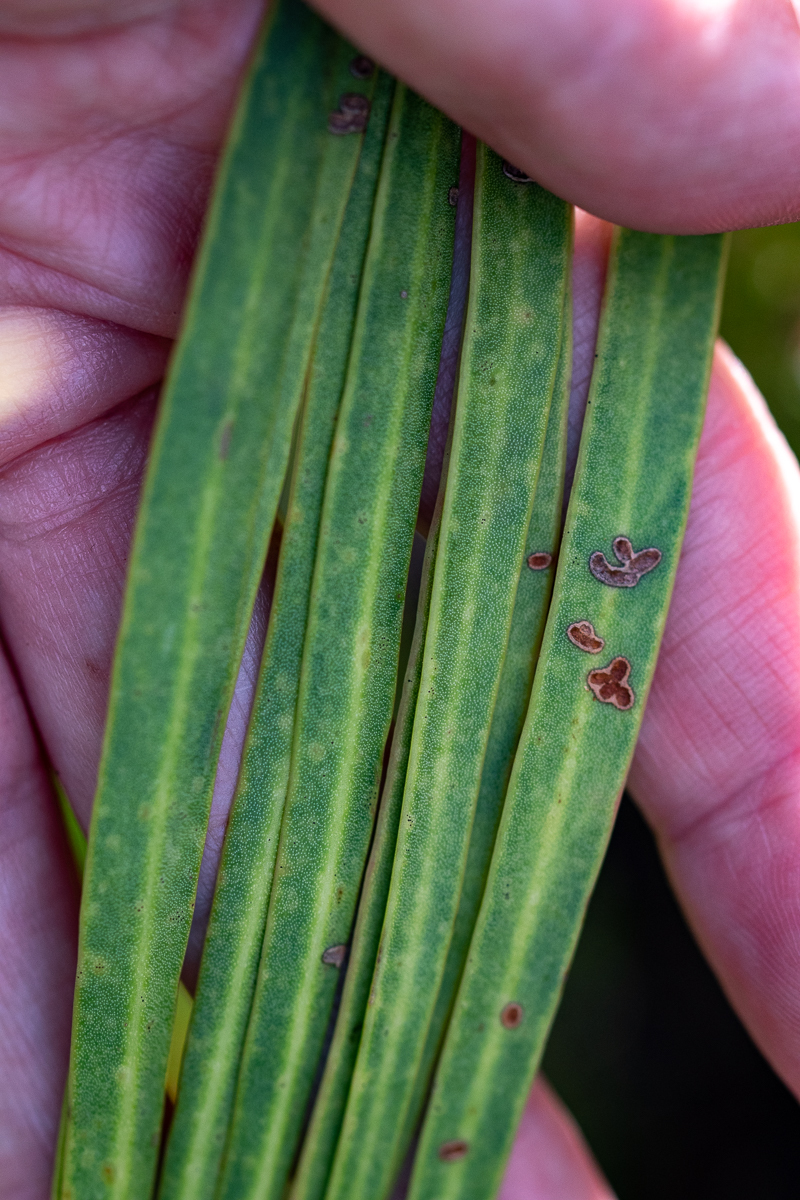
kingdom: Plantae
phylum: Tracheophyta
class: Magnoliopsida
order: Proteales
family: Proteaceae
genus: Protea
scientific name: Protea angustata
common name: Kleinmond sugarbush
